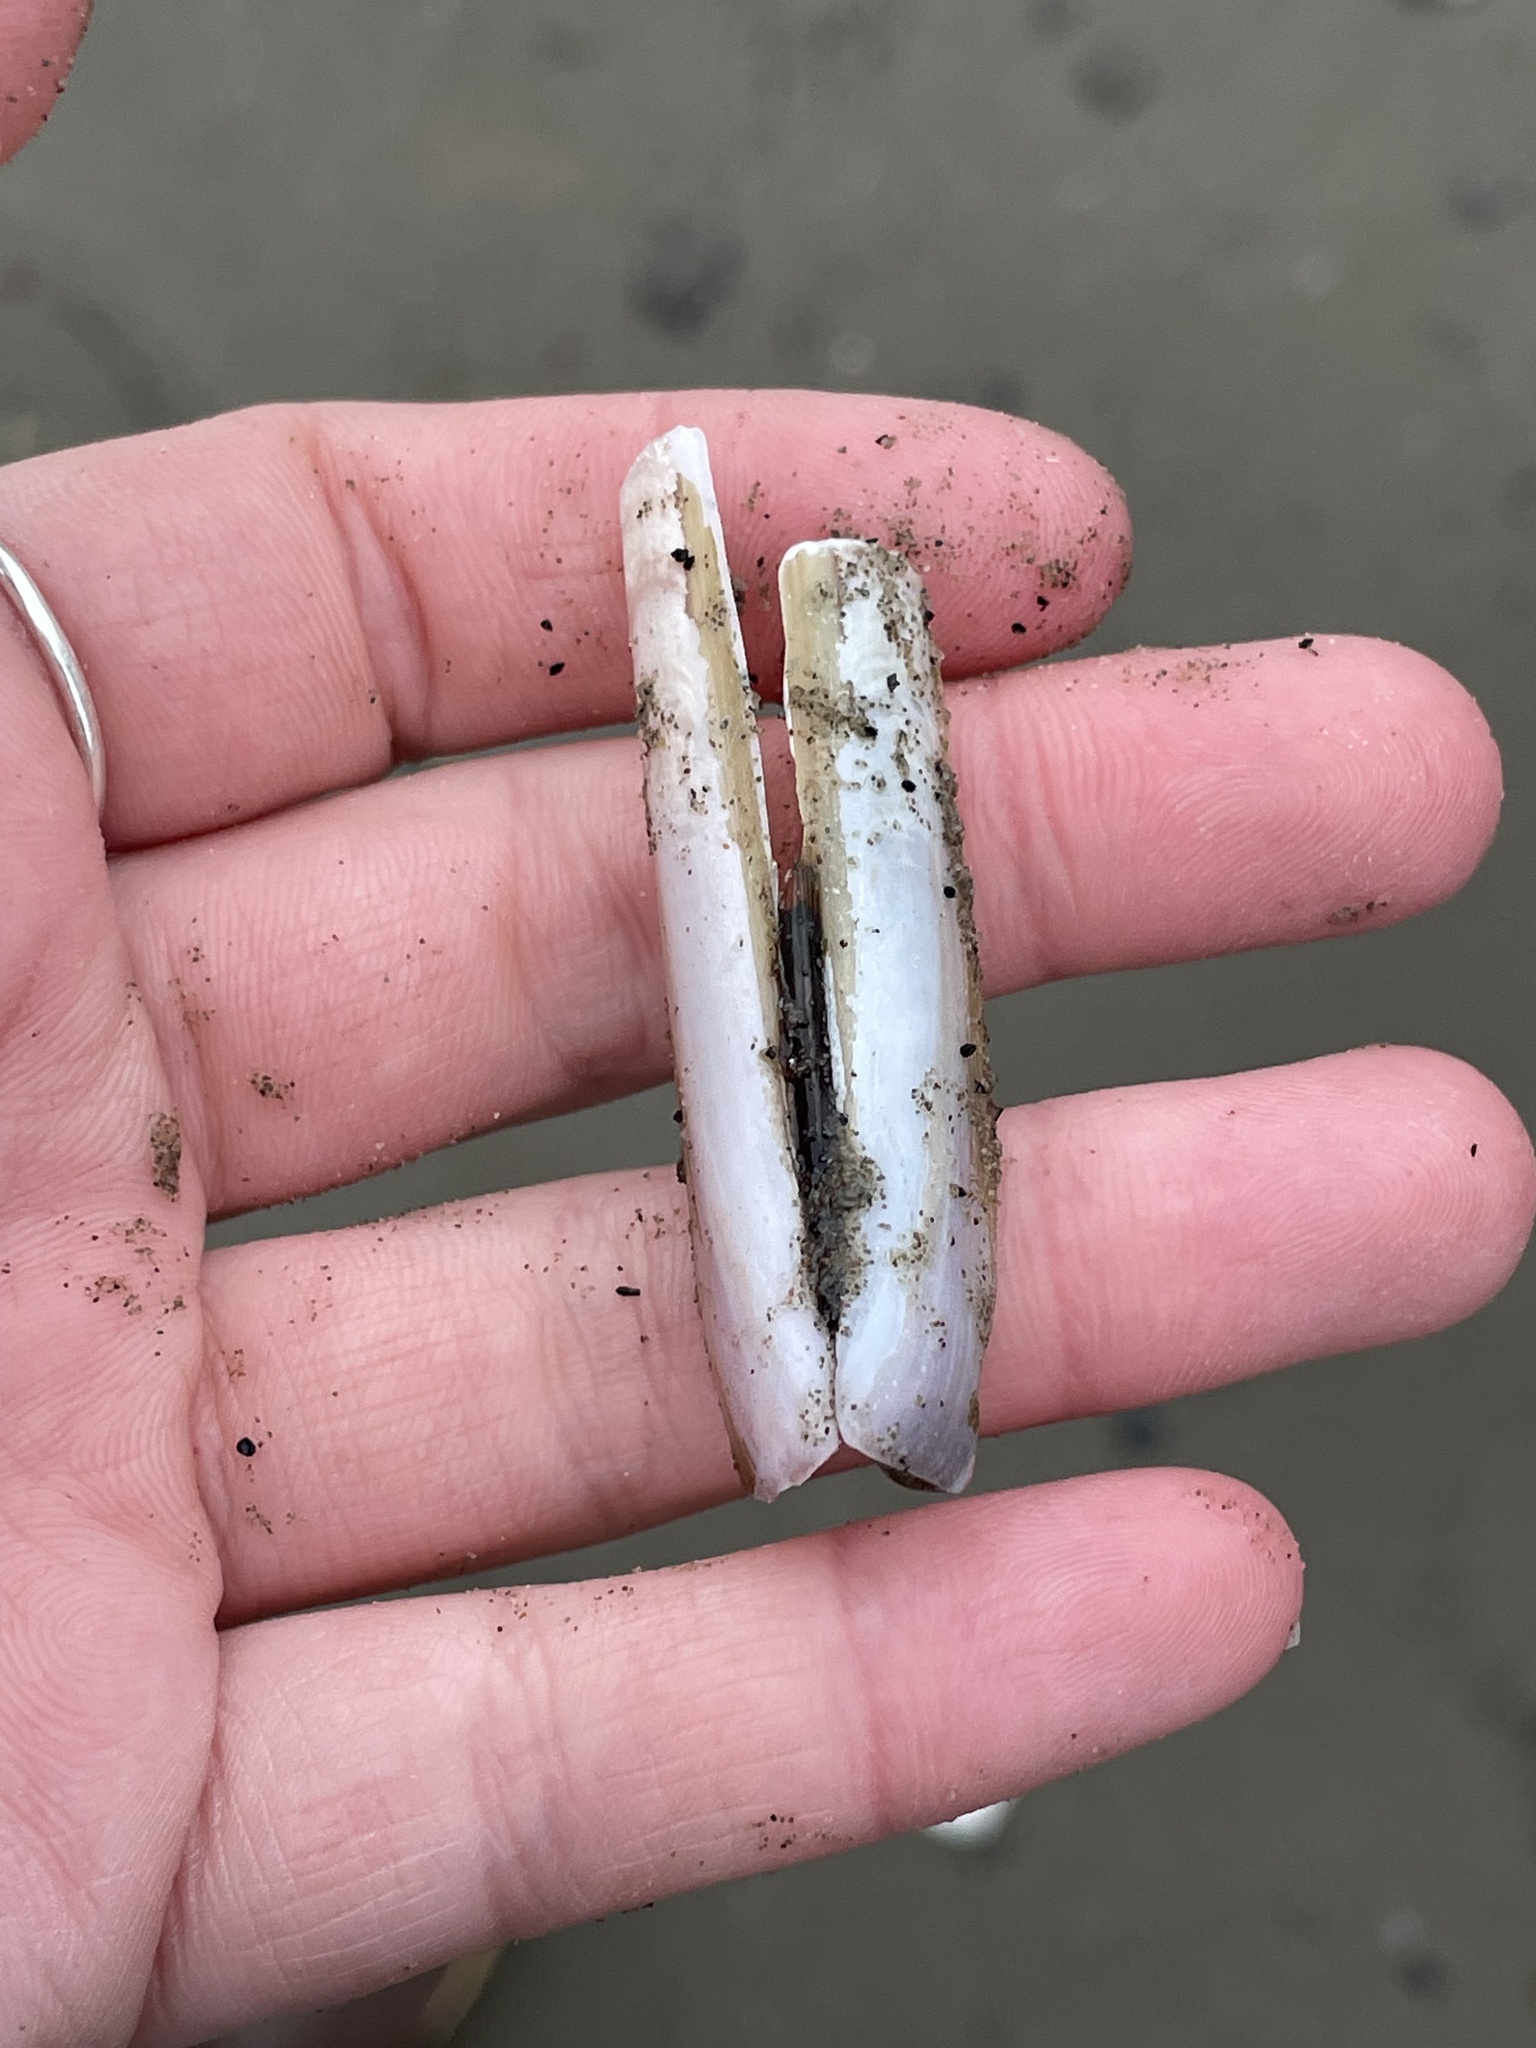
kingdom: Animalia
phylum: Mollusca
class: Bivalvia
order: Adapedonta
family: Pharidae
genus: Ensis
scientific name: Ensis leei
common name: American jack knife clam
